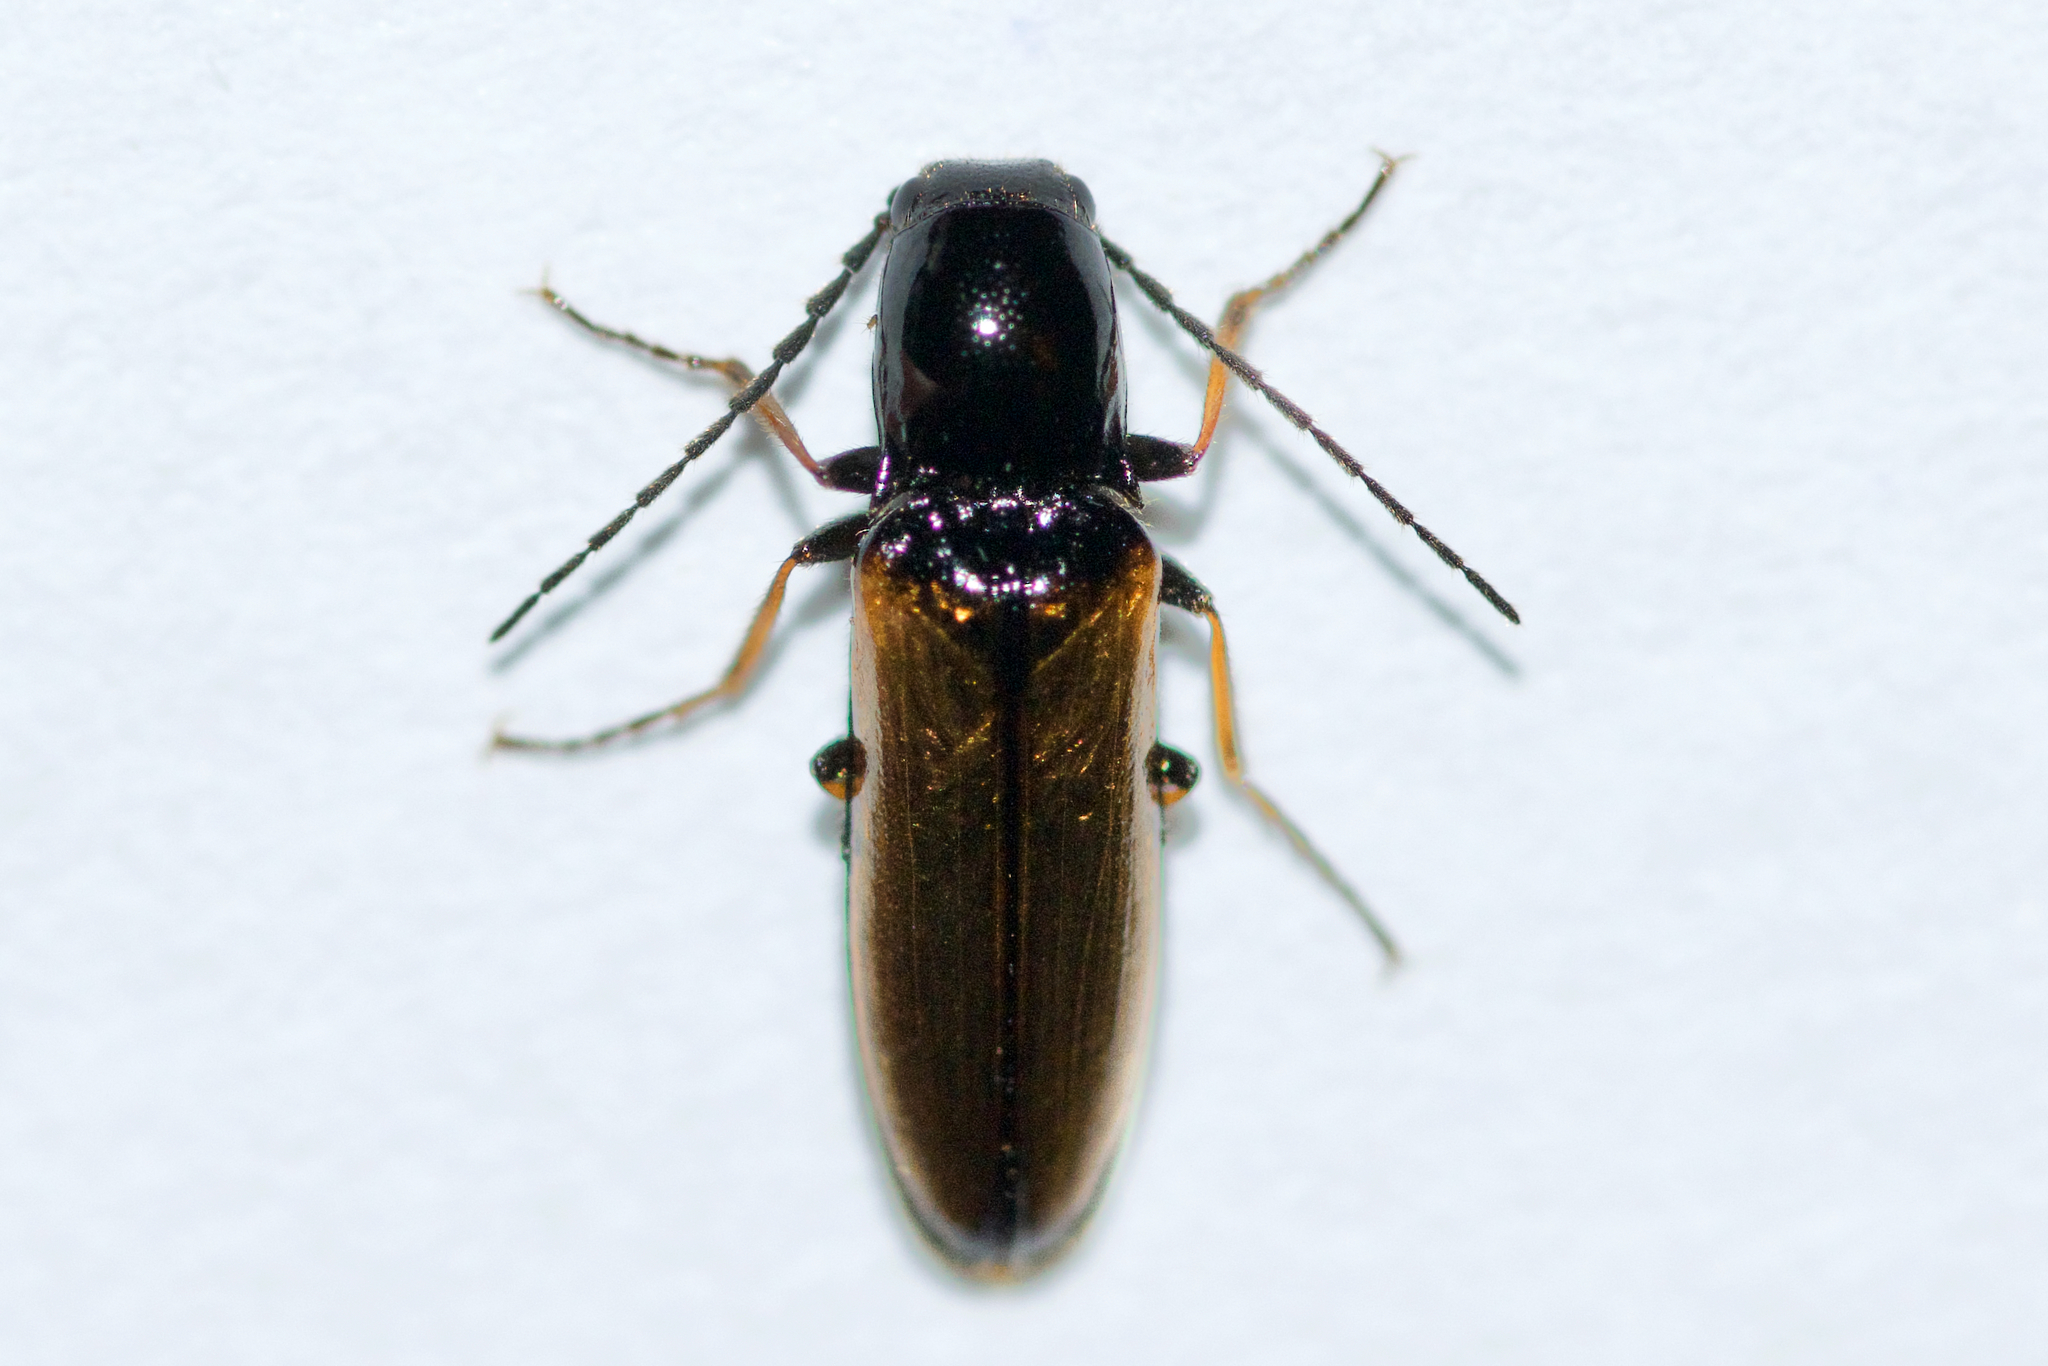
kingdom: Animalia
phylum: Arthropoda
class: Insecta
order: Coleoptera
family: Elateridae
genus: Oestodes
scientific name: Oestodes tenuicollis
